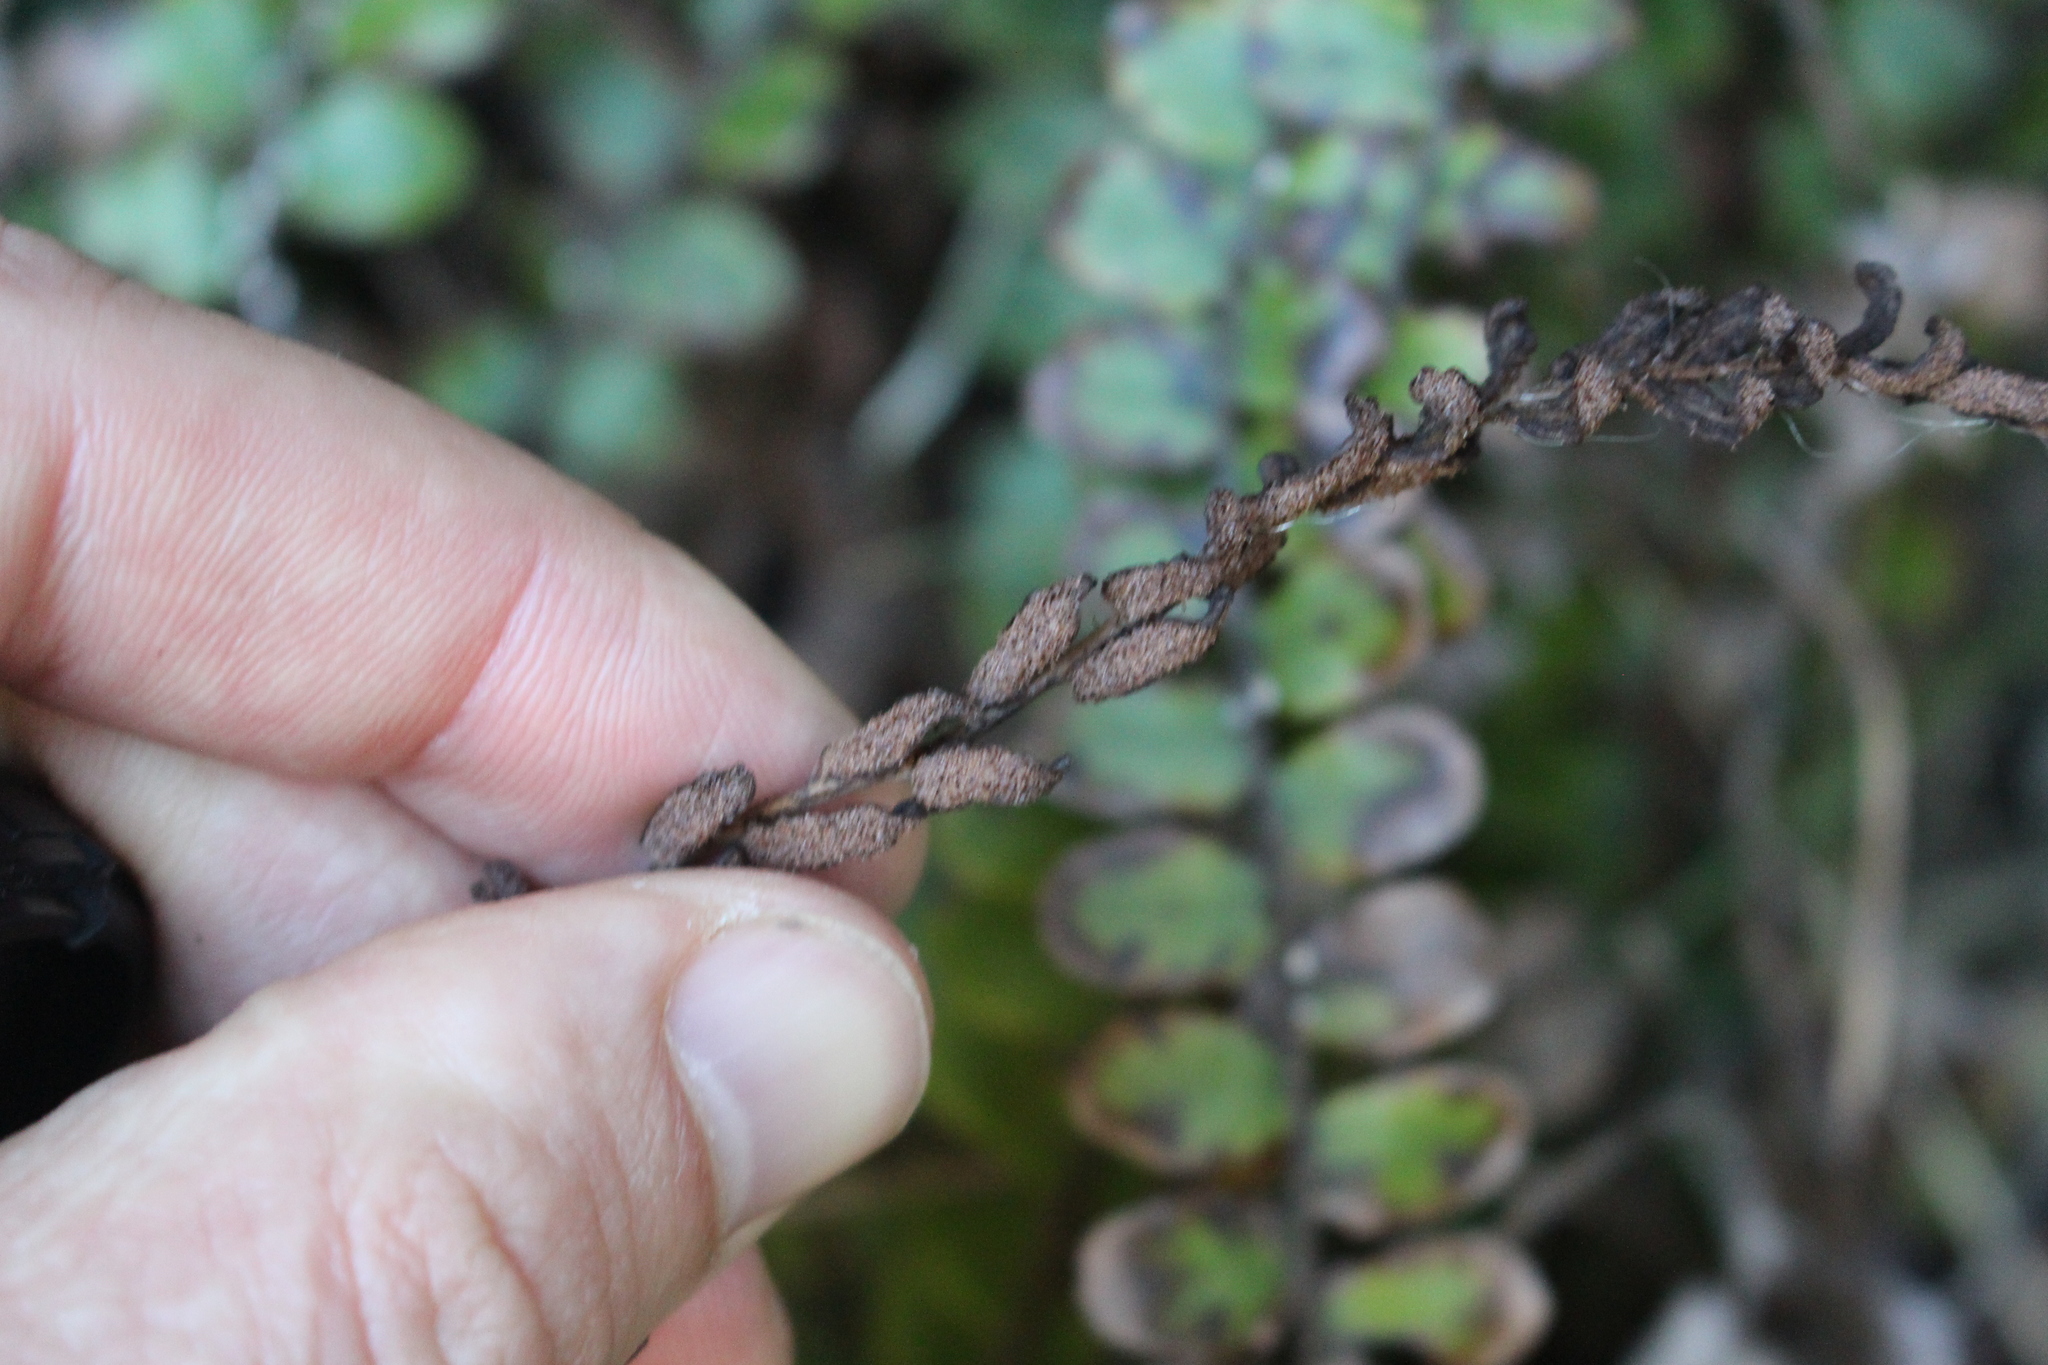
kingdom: Plantae
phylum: Tracheophyta
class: Polypodiopsida
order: Polypodiales
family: Blechnaceae
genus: Cranfillia
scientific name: Cranfillia fluviatilis
